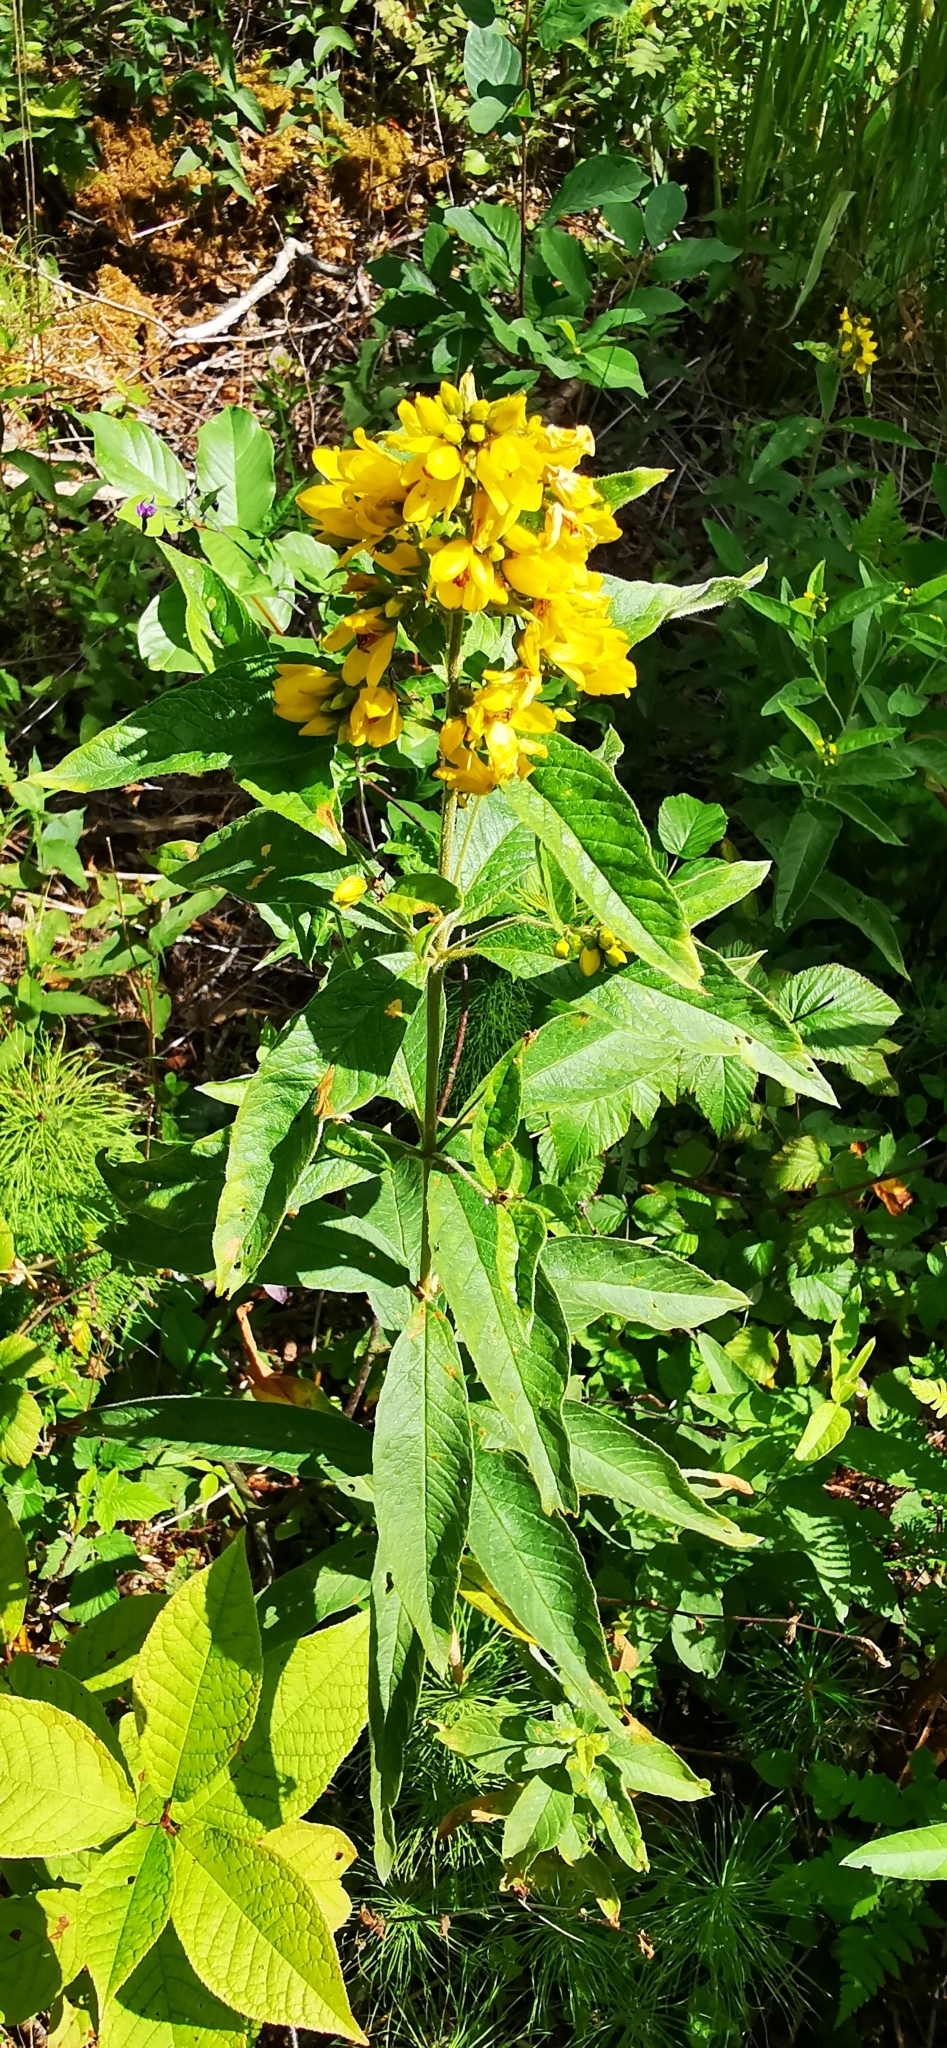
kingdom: Plantae
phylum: Tracheophyta
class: Magnoliopsida
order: Ericales
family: Primulaceae
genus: Lysimachia
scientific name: Lysimachia vulgaris
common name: Yellow loosestrife
